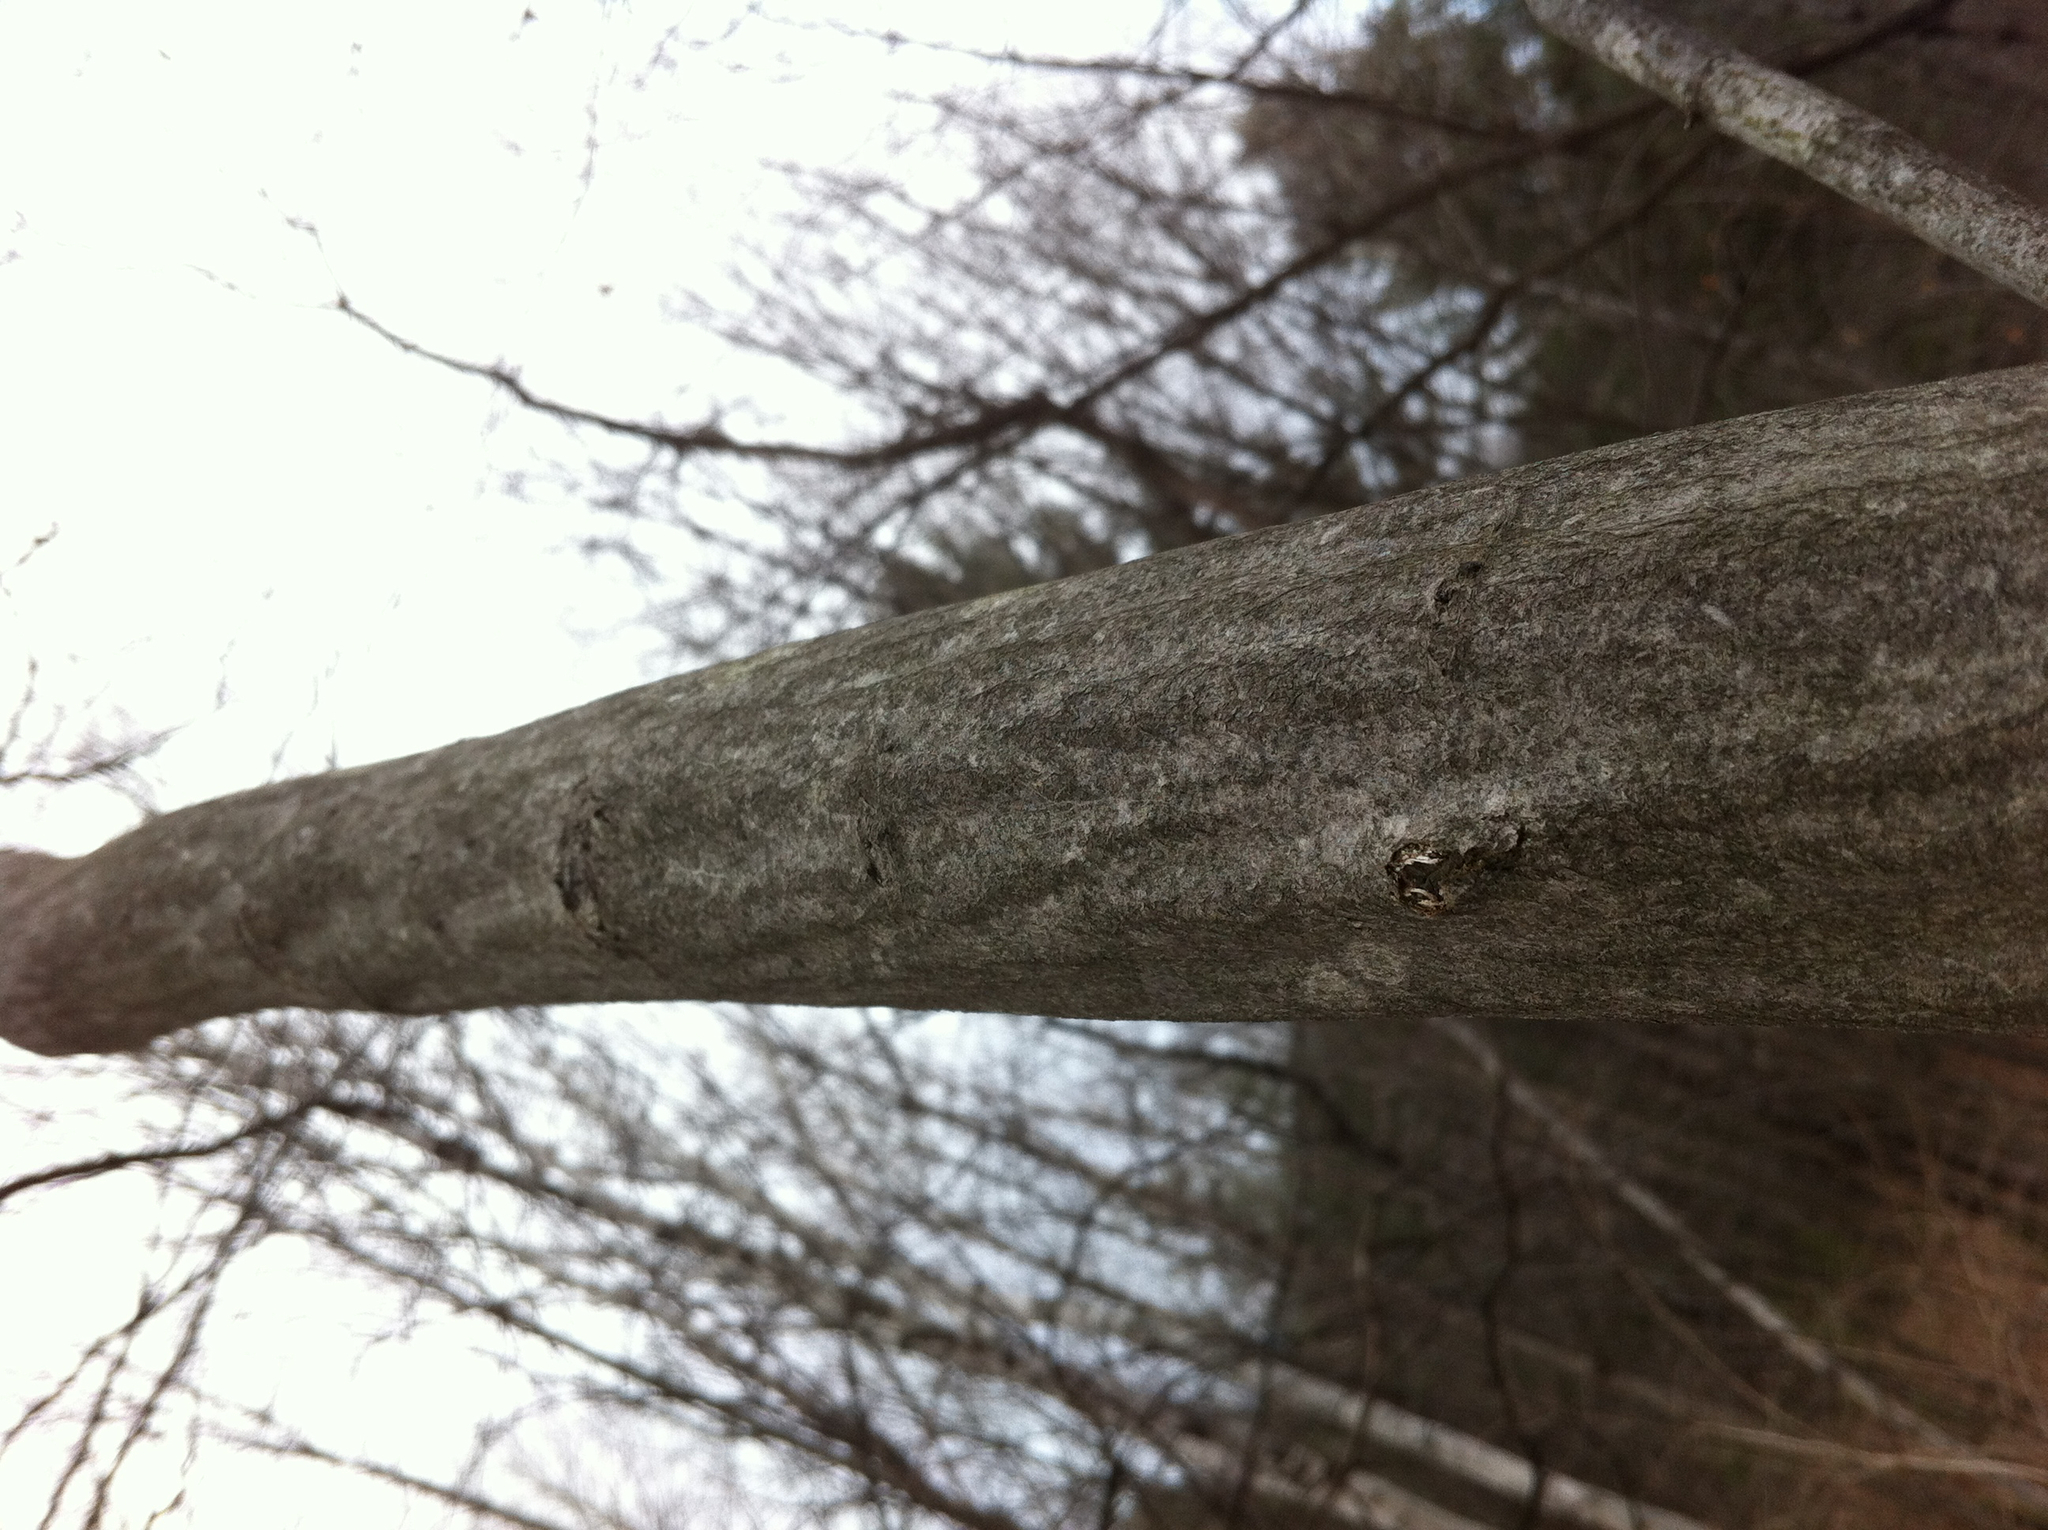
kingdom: Plantae
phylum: Tracheophyta
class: Magnoliopsida
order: Fagales
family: Betulaceae
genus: Carpinus
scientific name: Carpinus caroliniana
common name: American hornbeam
